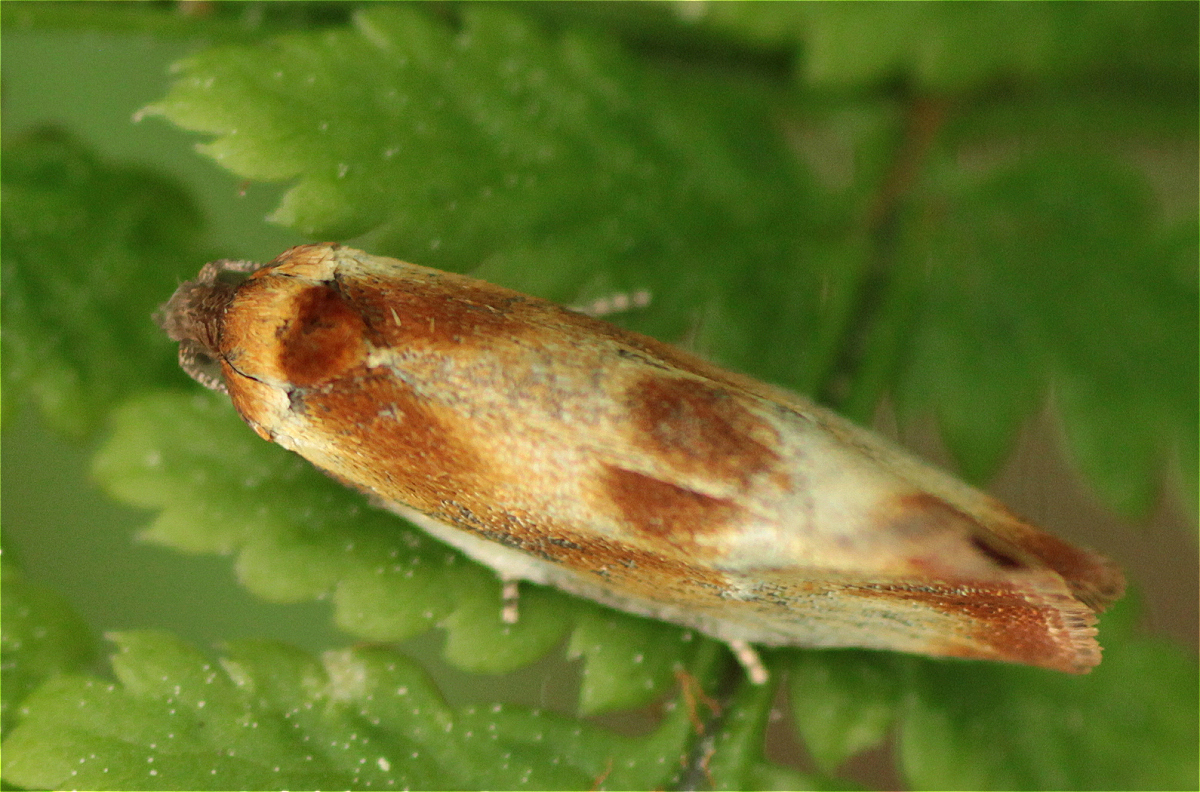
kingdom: Animalia
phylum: Arthropoda
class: Insecta
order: Lepidoptera
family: Tortricidae
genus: Eulia
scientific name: Eulia ministrana
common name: Brassy twist
